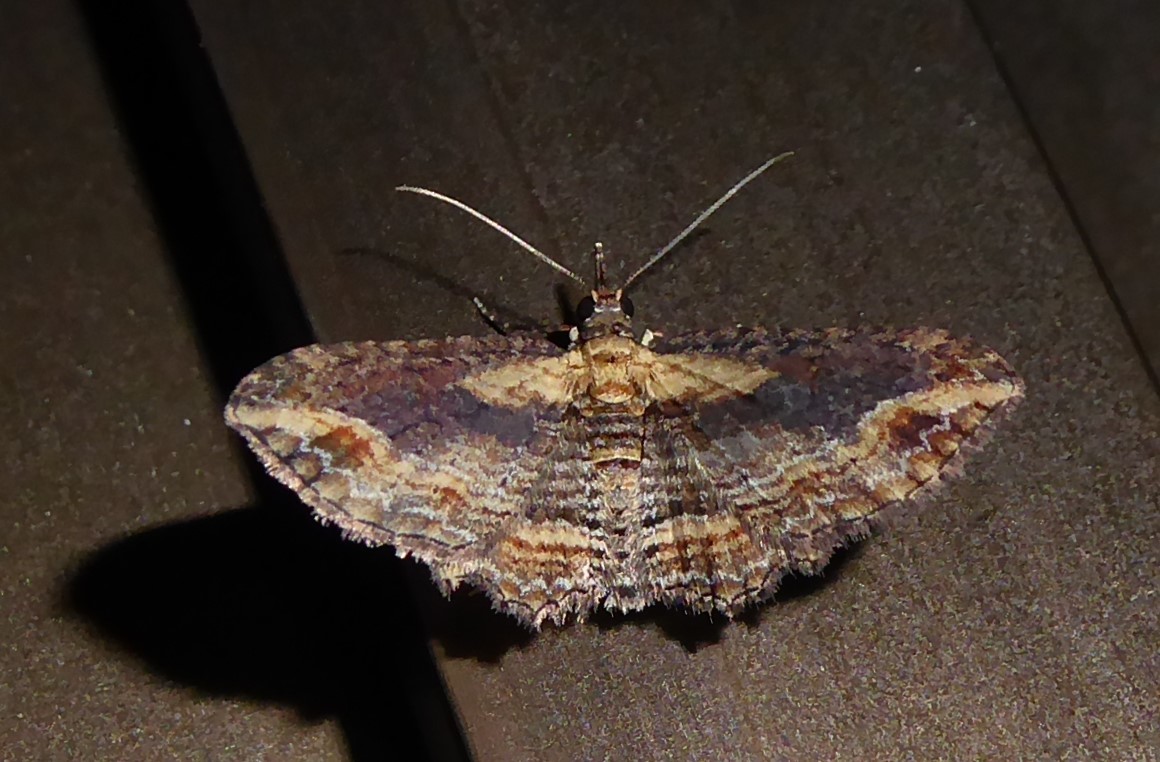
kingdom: Animalia
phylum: Arthropoda
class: Insecta
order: Lepidoptera
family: Geometridae
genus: Chloroclystis
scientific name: Chloroclystis filata
